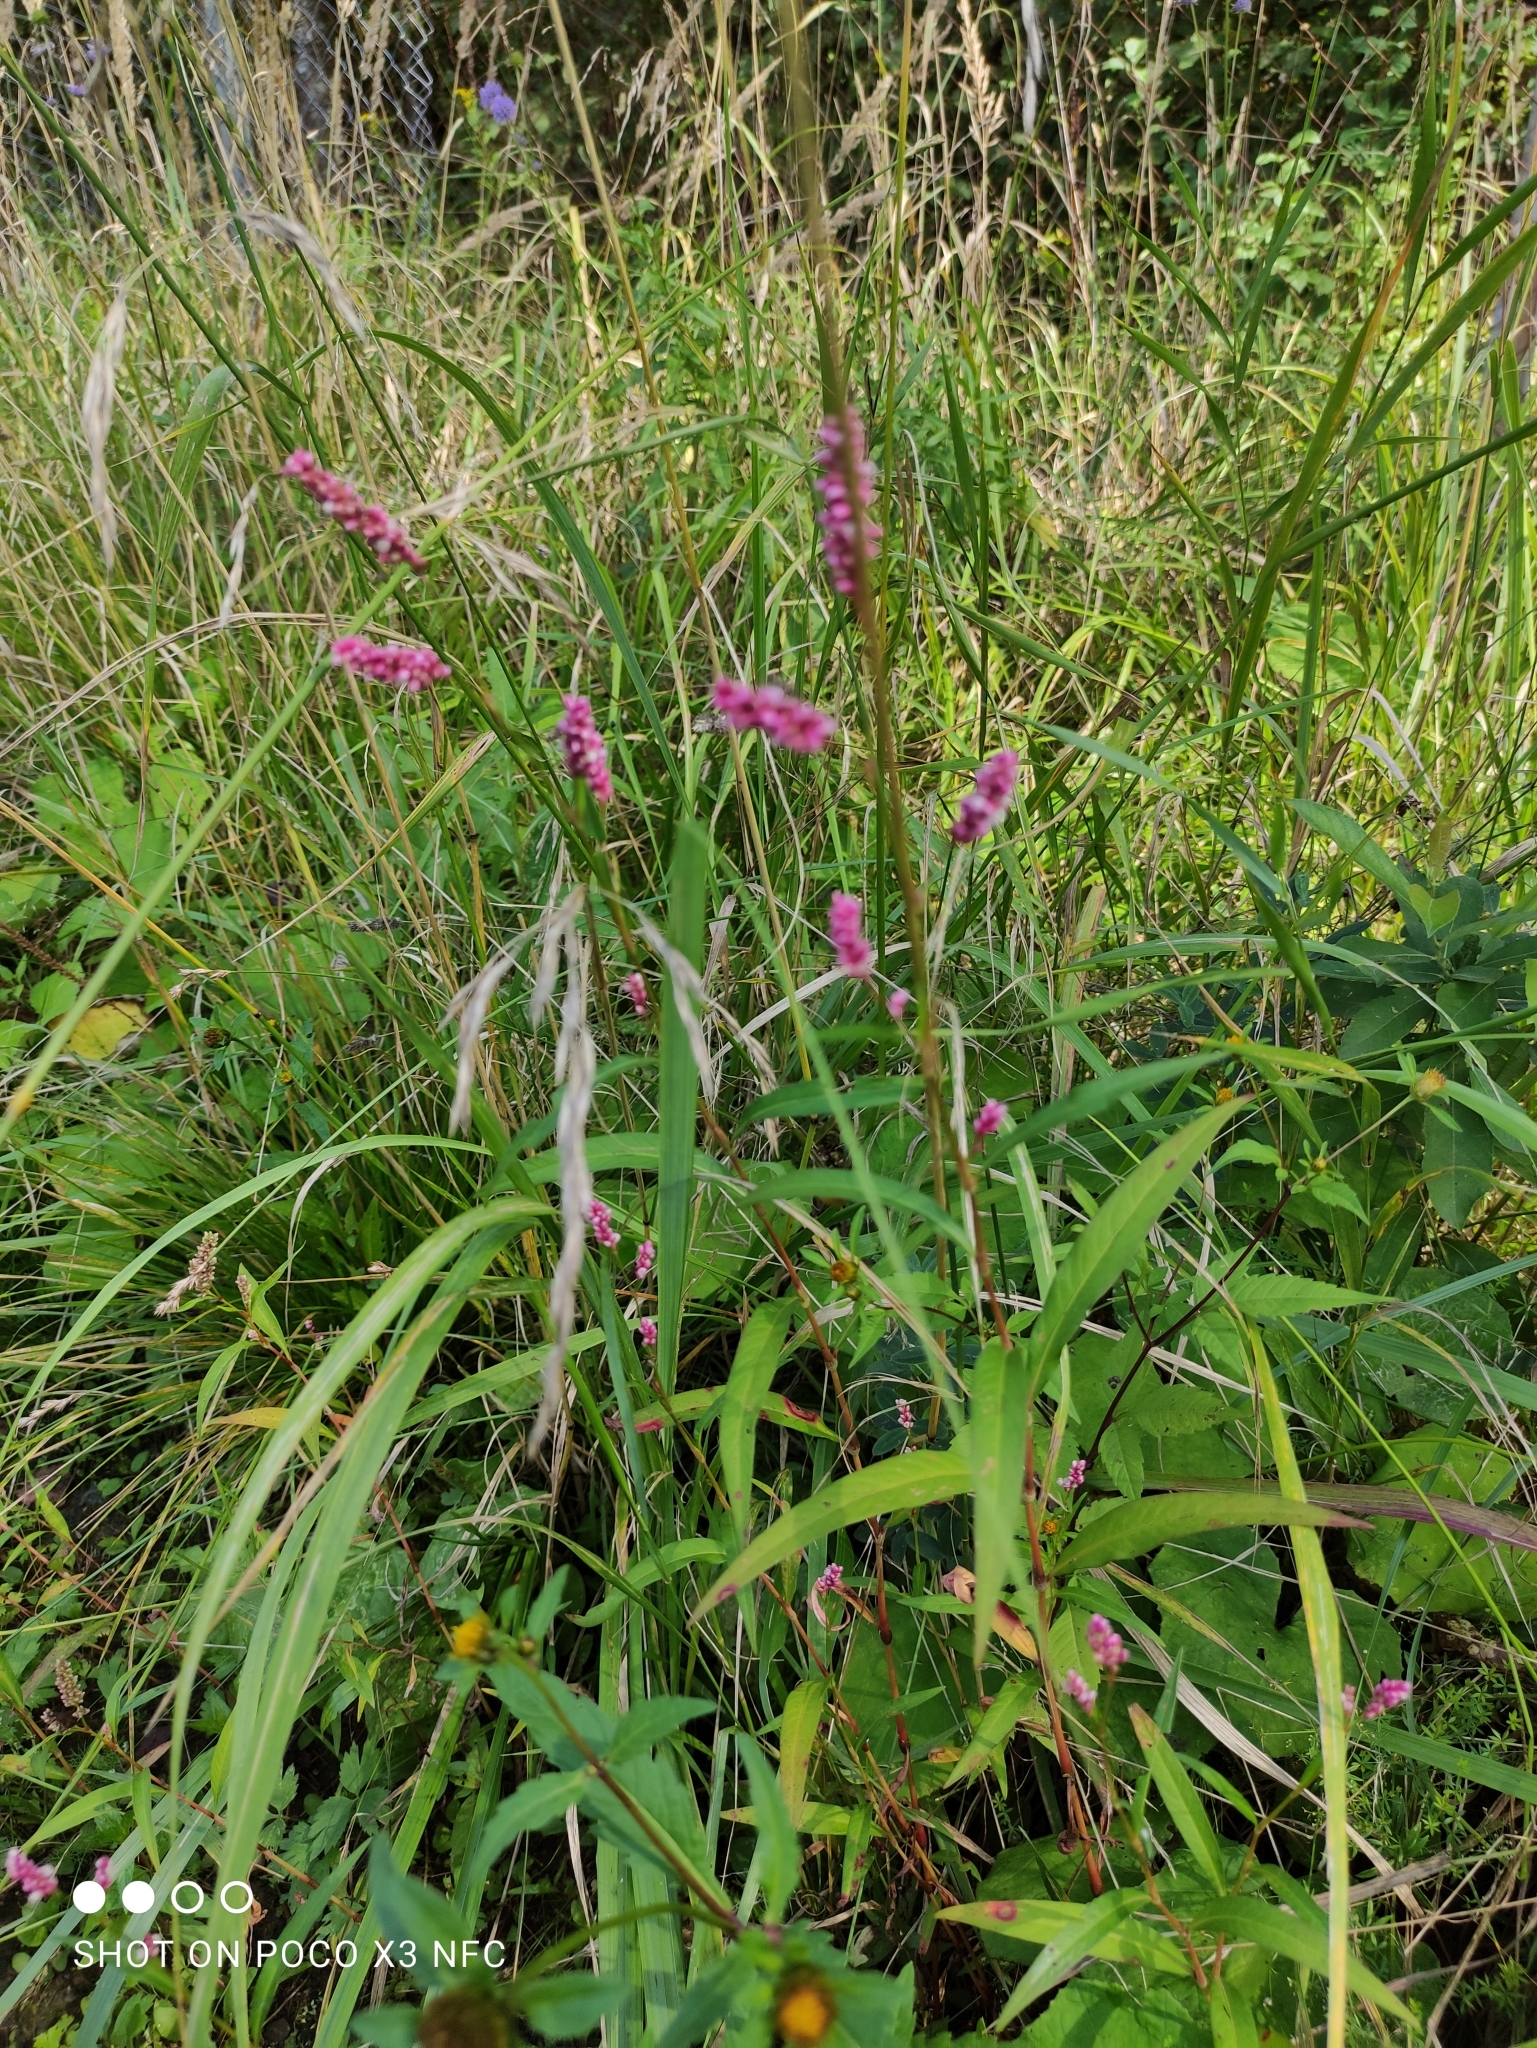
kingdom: Plantae
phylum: Tracheophyta
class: Magnoliopsida
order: Caryophyllales
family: Polygonaceae
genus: Persicaria
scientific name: Persicaria maculosa
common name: Redshank
